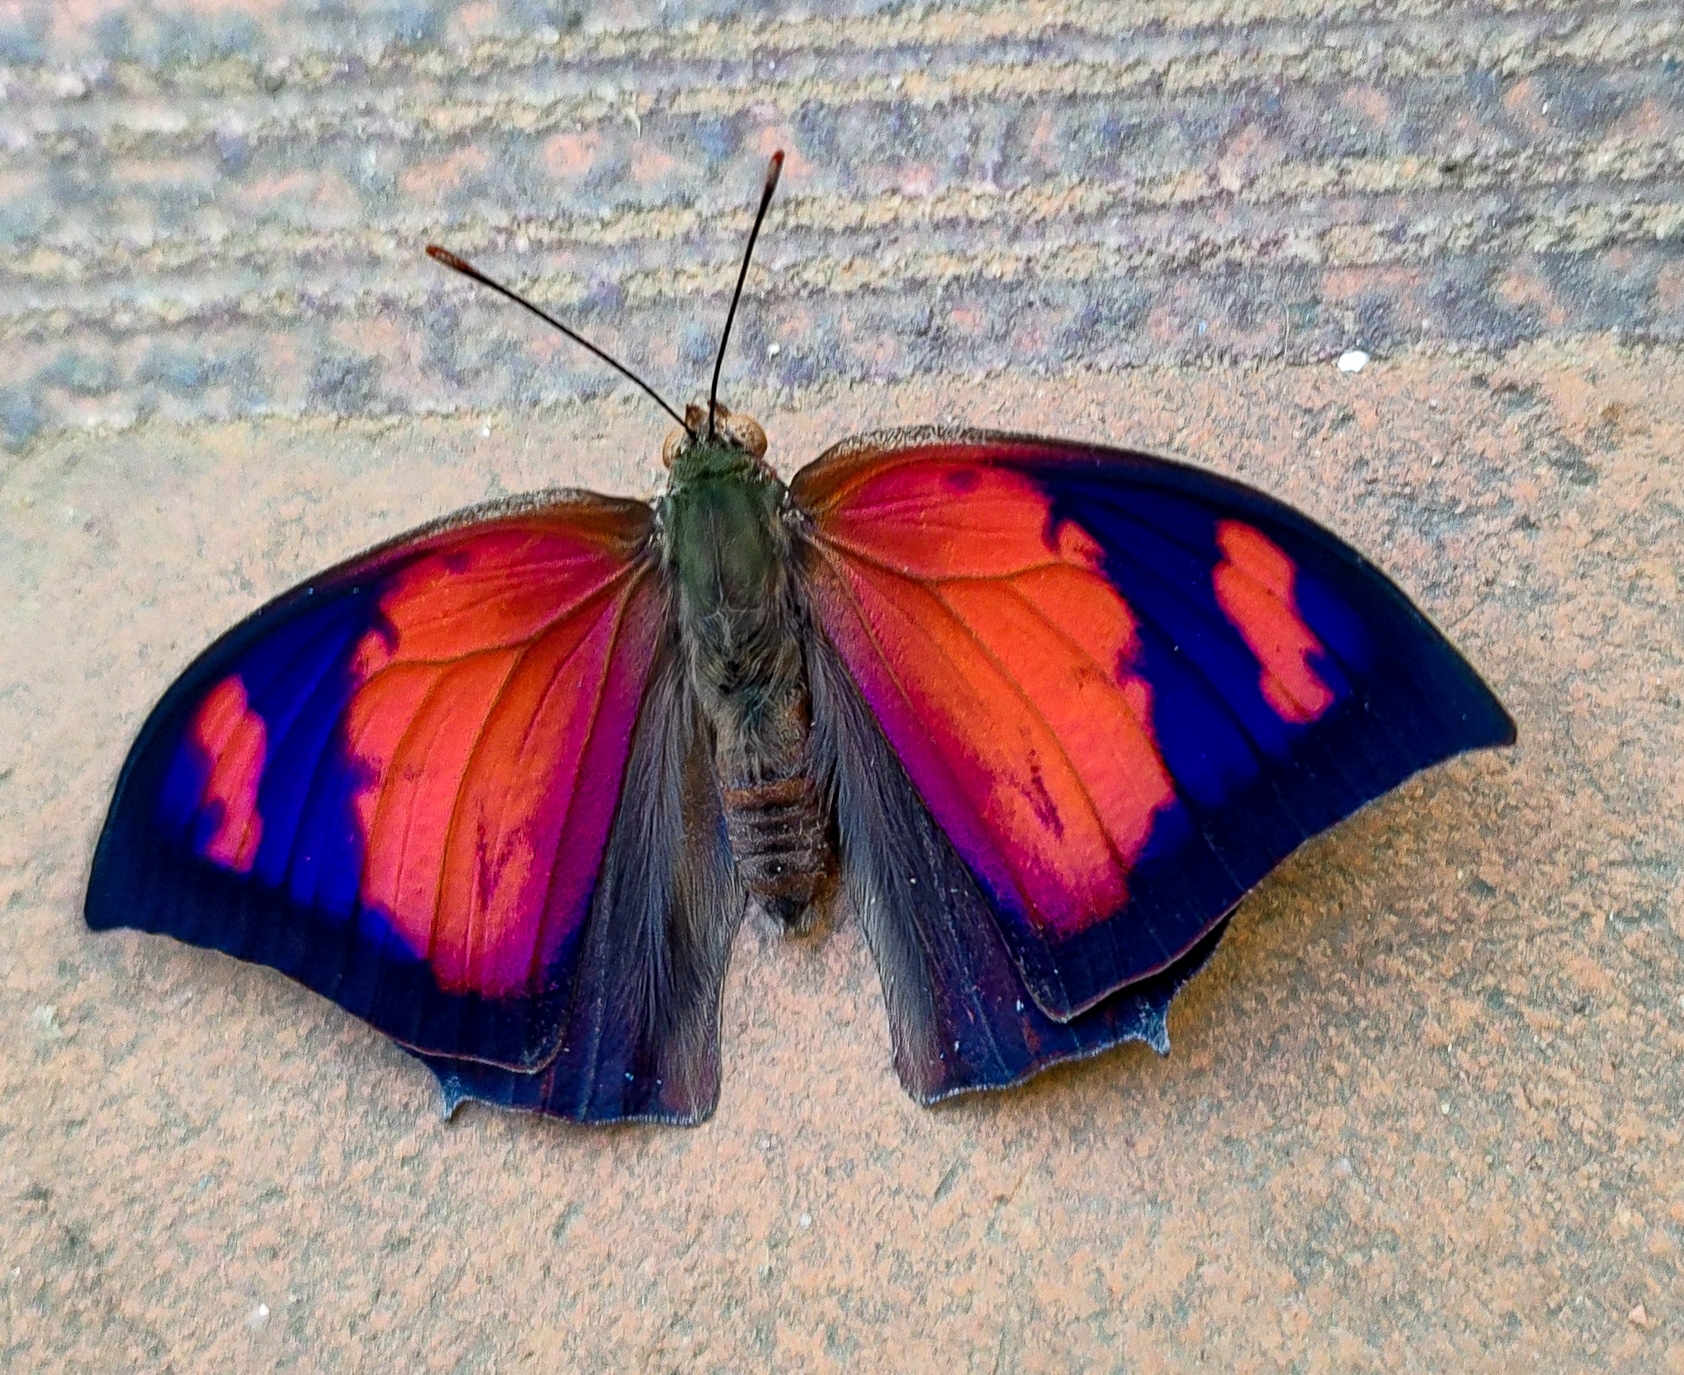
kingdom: Animalia
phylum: Arthropoda
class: Insecta
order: Lepidoptera
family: Nymphalidae
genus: Anaea
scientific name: Anaea ryphea
